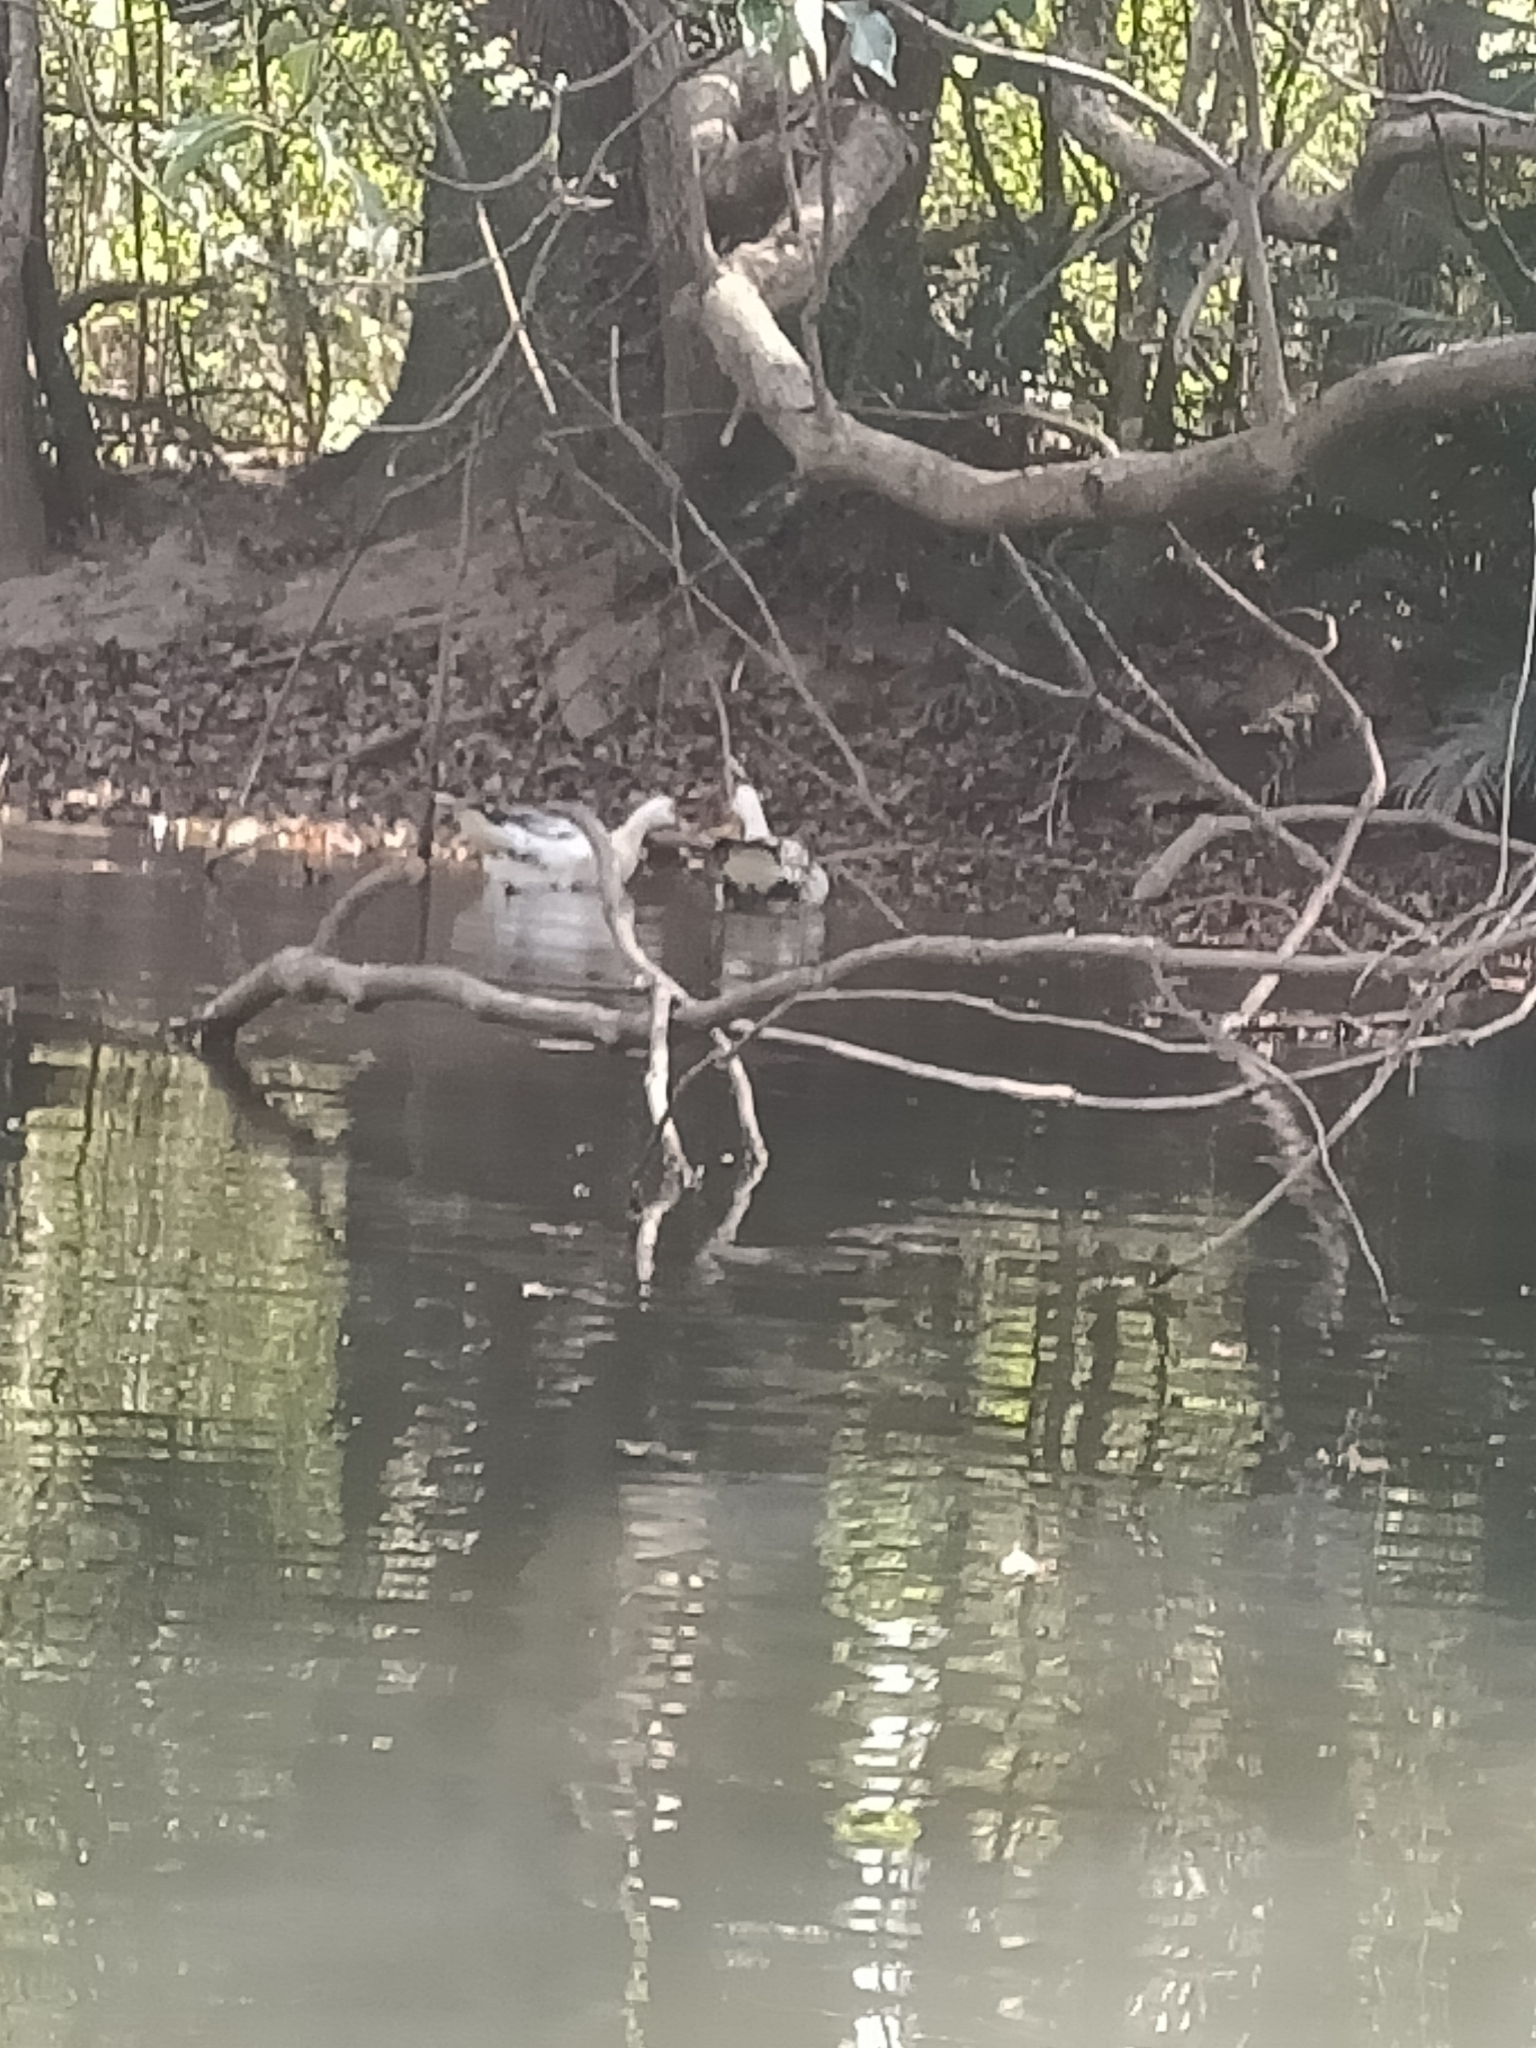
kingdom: Animalia
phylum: Chordata
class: Aves
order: Anseriformes
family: Anatidae
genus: Cairina
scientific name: Cairina moschata
